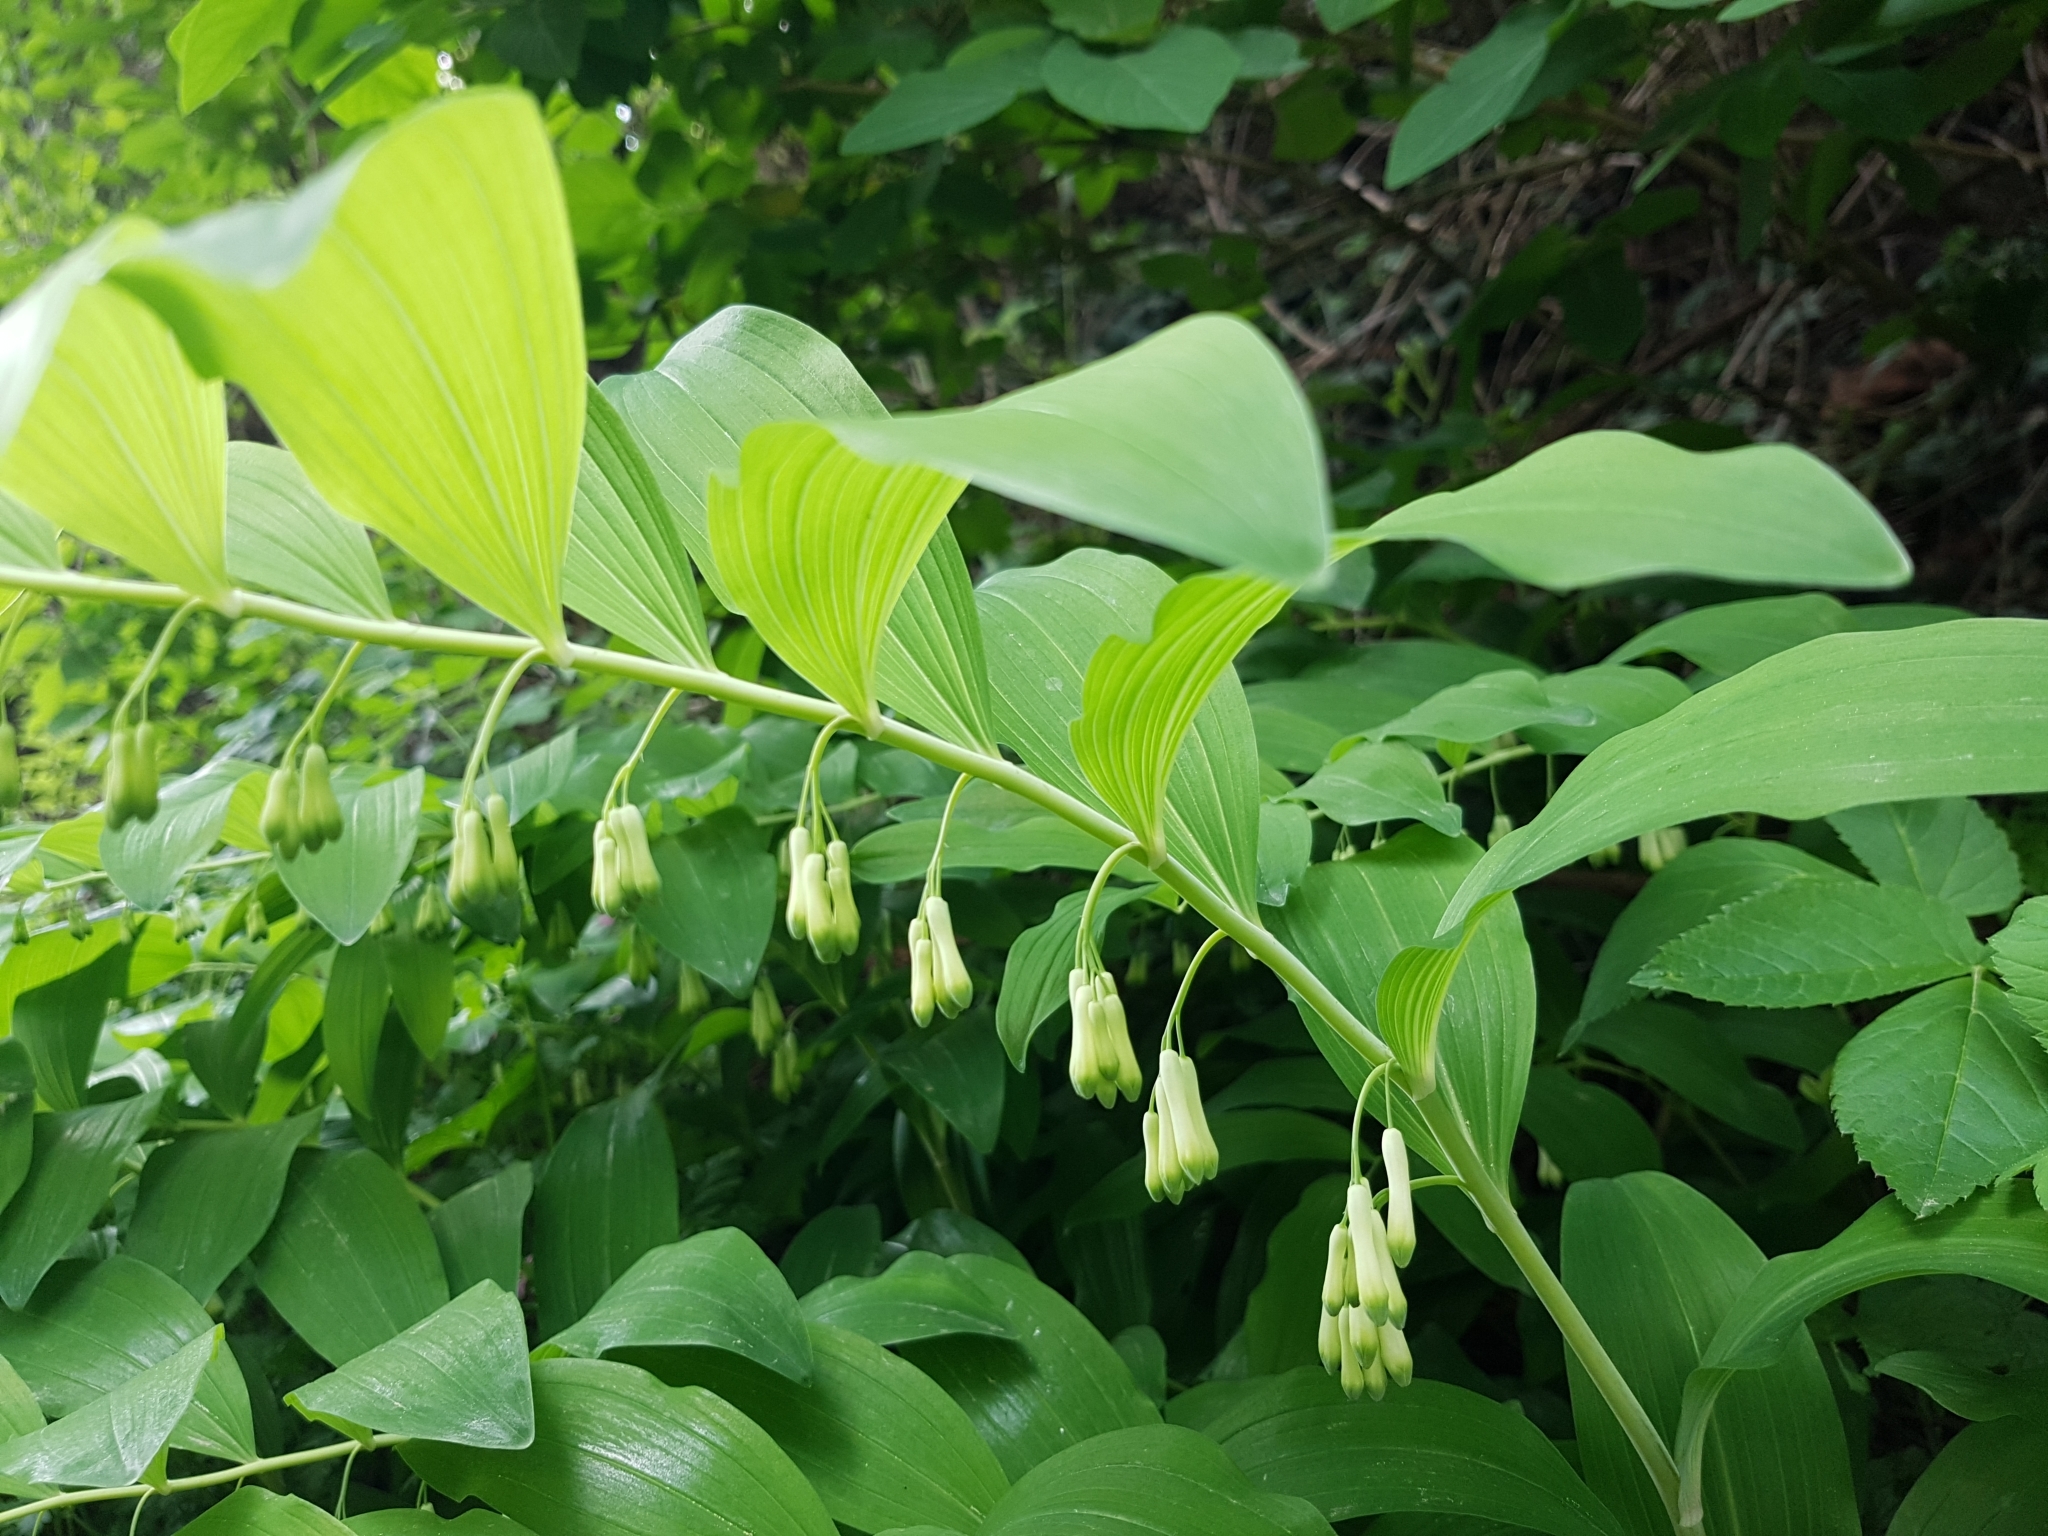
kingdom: Plantae
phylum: Tracheophyta
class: Liliopsida
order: Asparagales
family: Asparagaceae
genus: Polygonatum
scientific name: Polygonatum multiflorum
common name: Solomon's-seal
